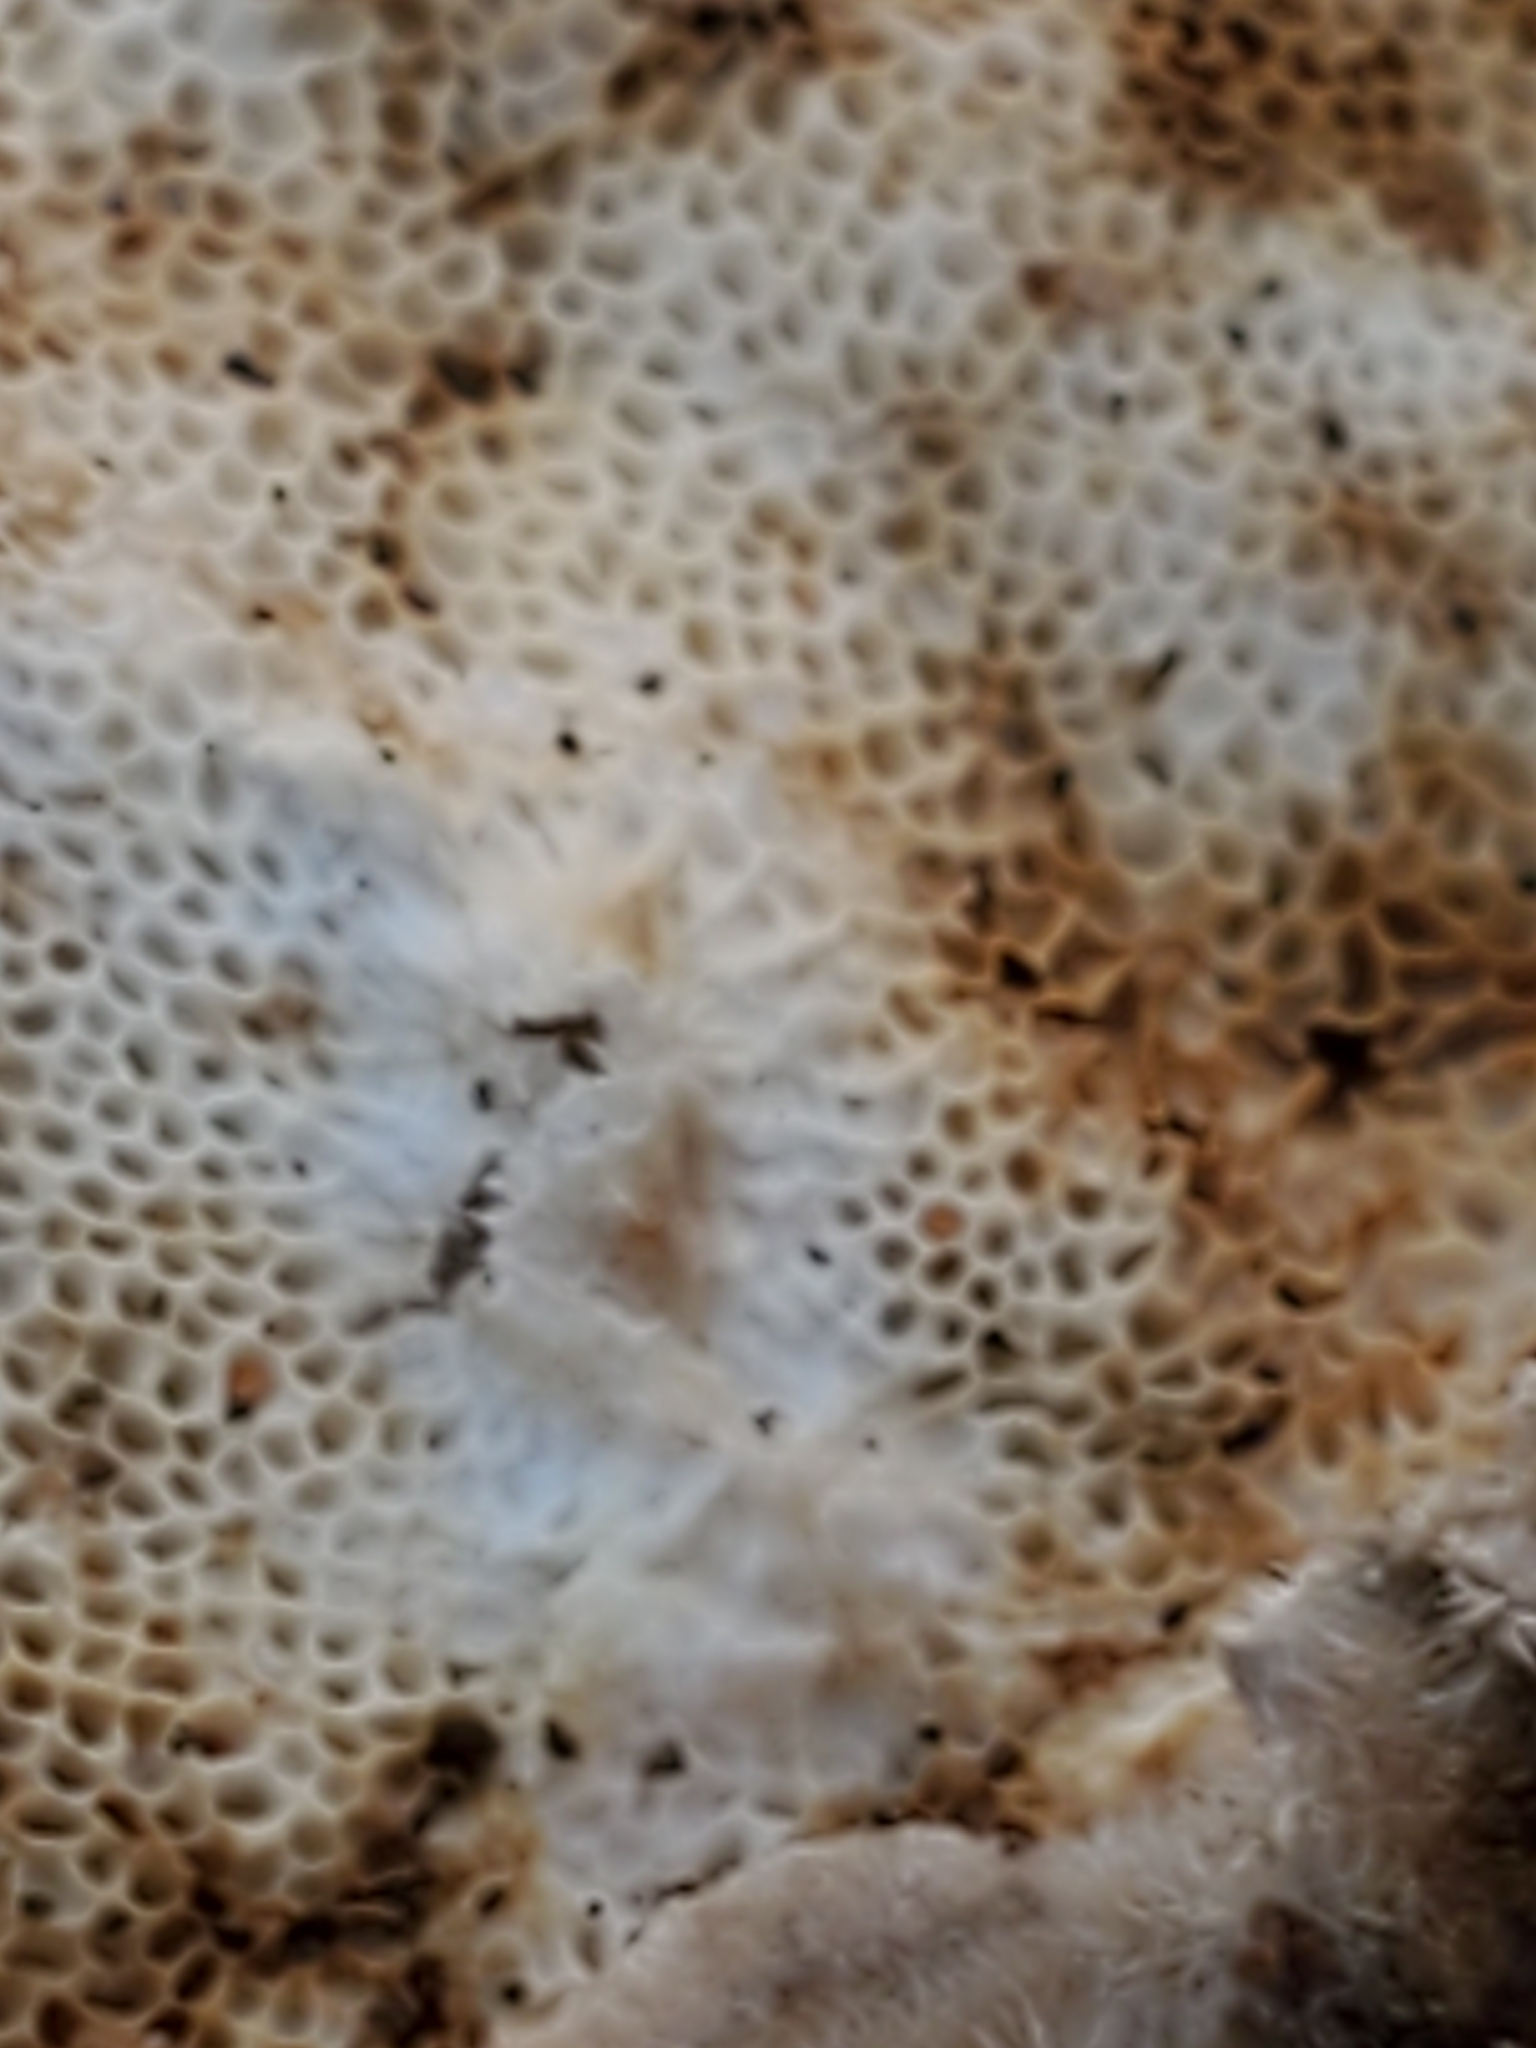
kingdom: Fungi
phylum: Basidiomycota
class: Agaricomycetes
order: Polyporales
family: Polyporaceae
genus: Trametes
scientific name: Trametes versicolor
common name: Turkeytail
